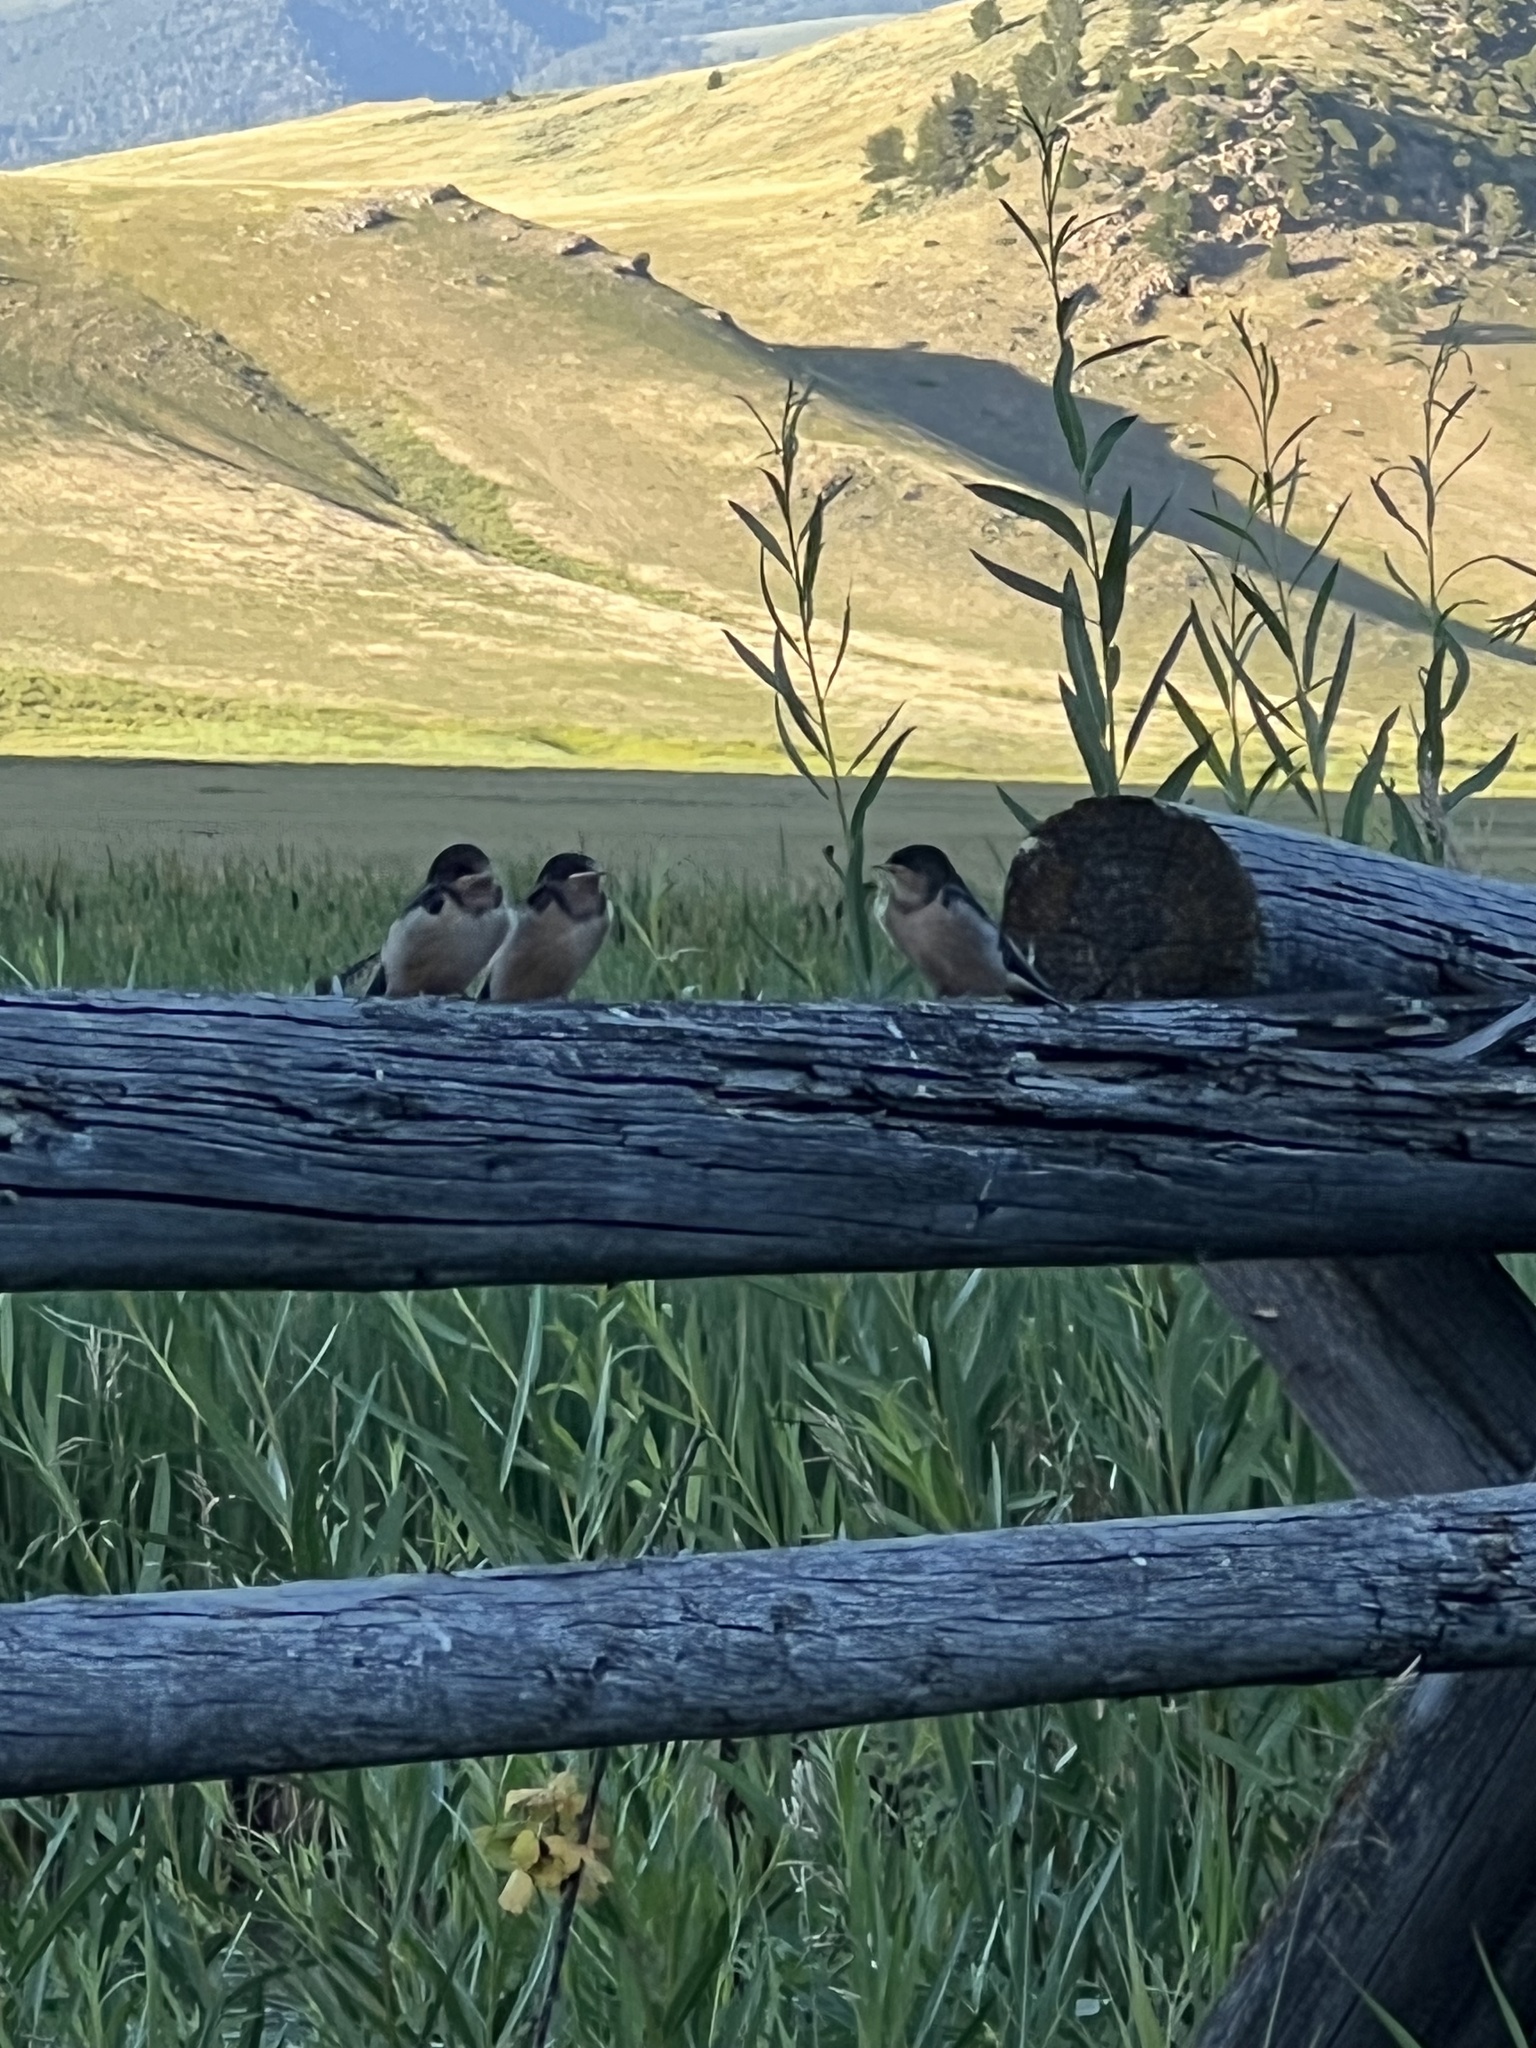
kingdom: Animalia
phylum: Chordata
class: Aves
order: Passeriformes
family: Hirundinidae
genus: Hirundo
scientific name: Hirundo rustica
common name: Barn swallow
